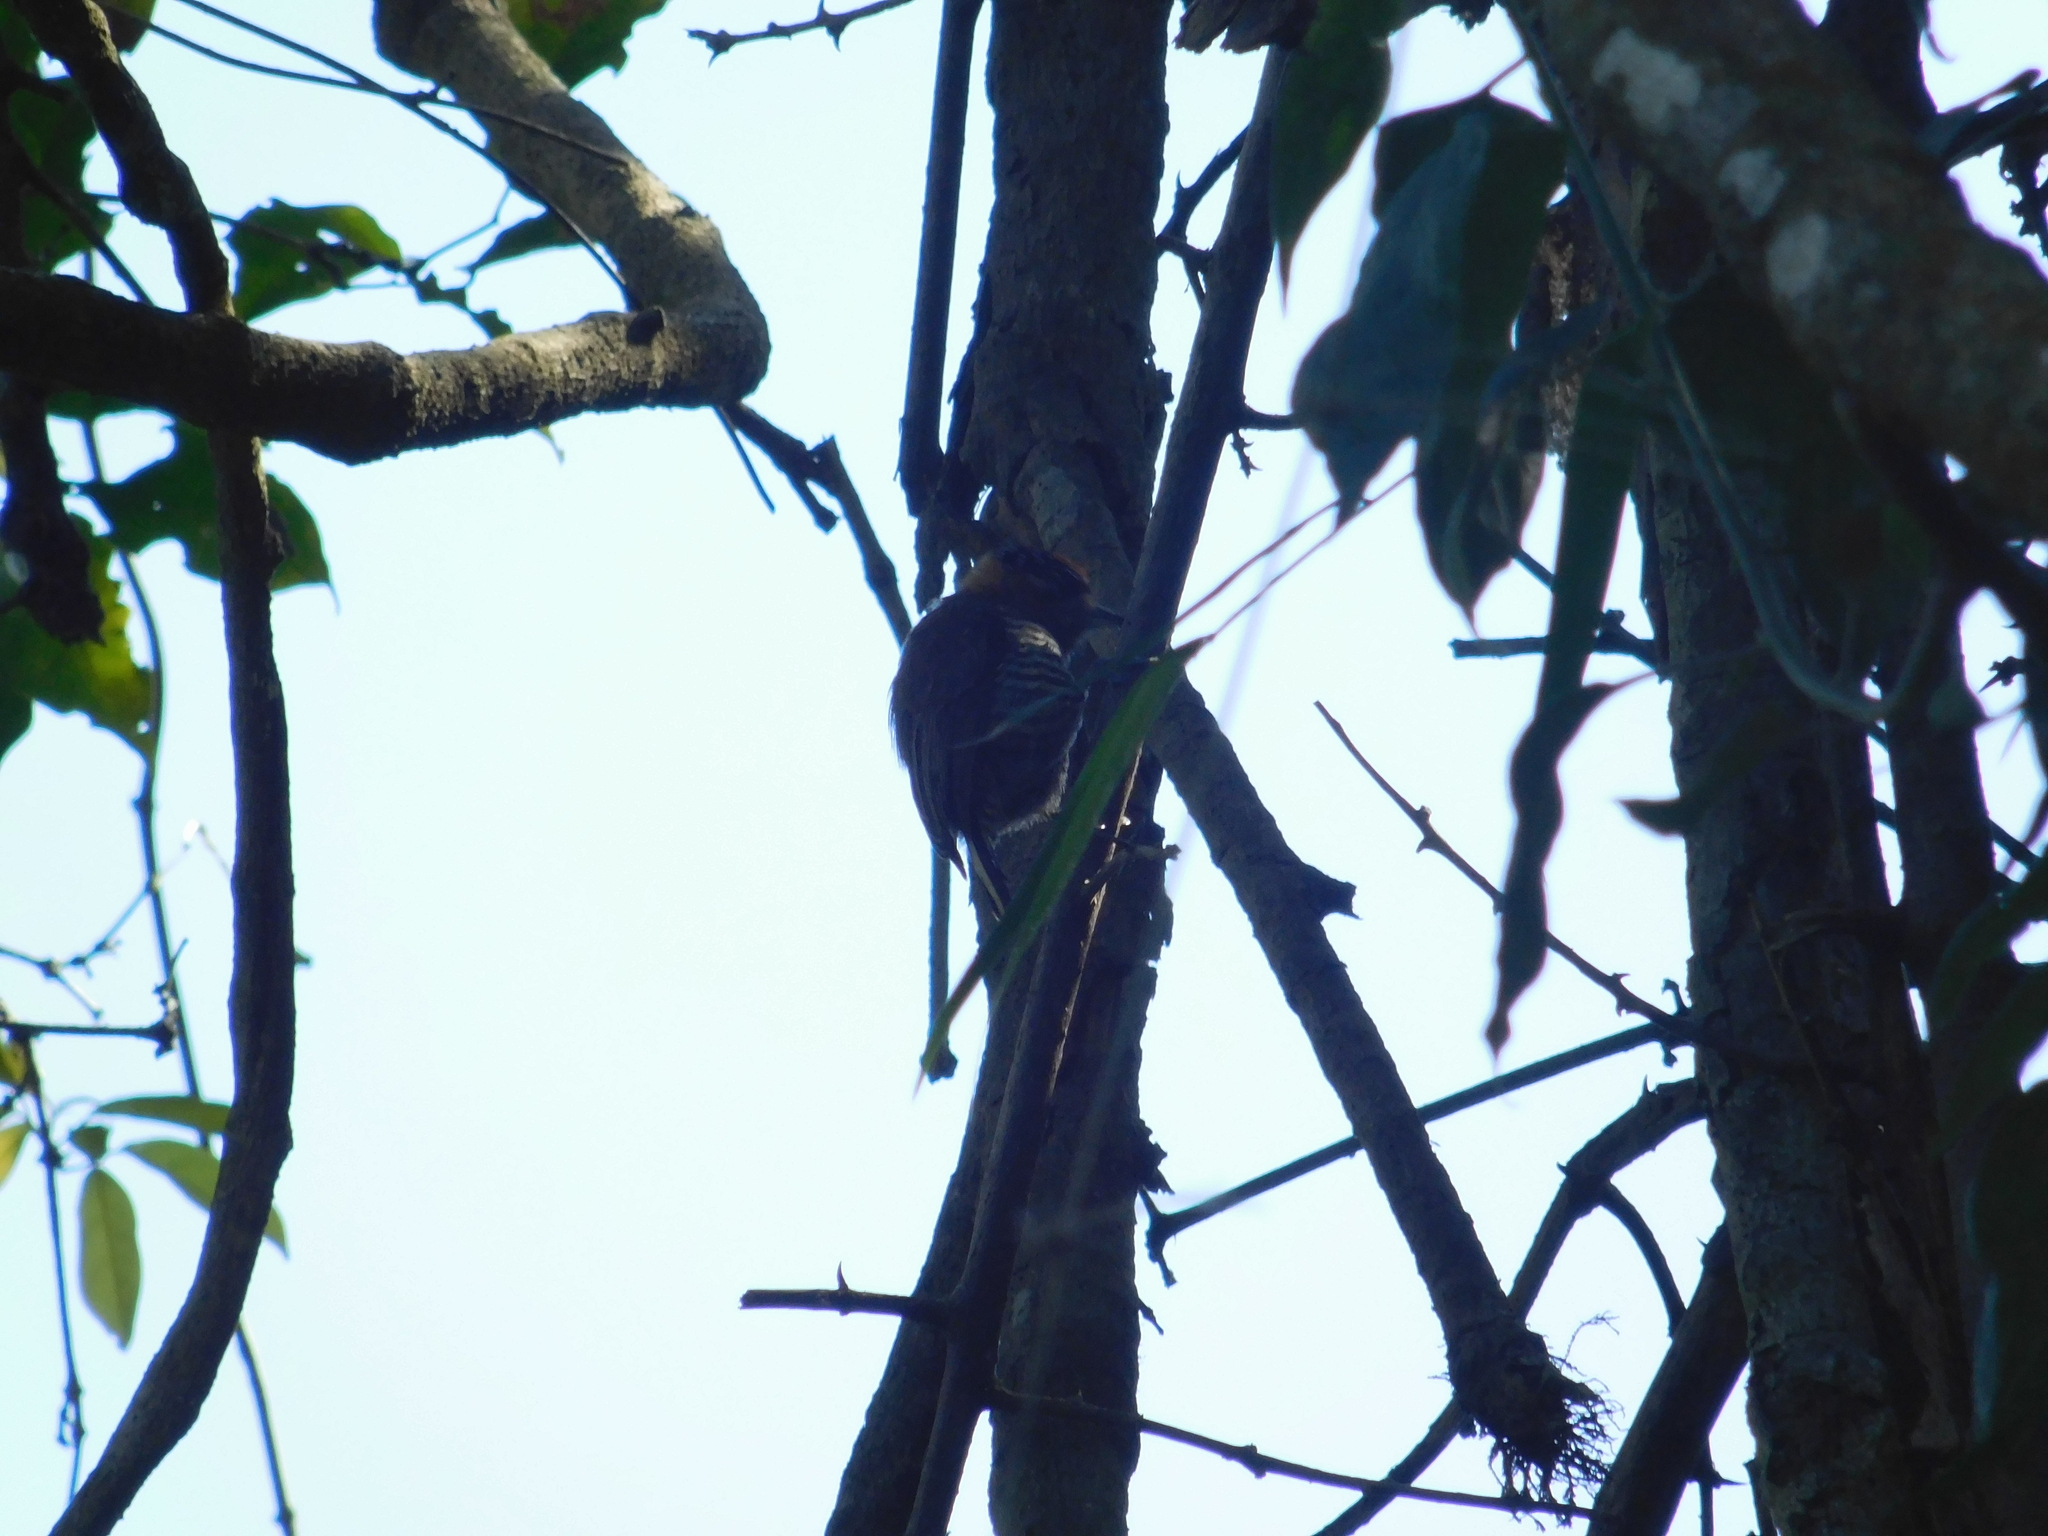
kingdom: Animalia
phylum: Chordata
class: Aves
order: Piciformes
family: Picidae
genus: Picumnus
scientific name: Picumnus temminckii
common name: Ochre-collared piculet
